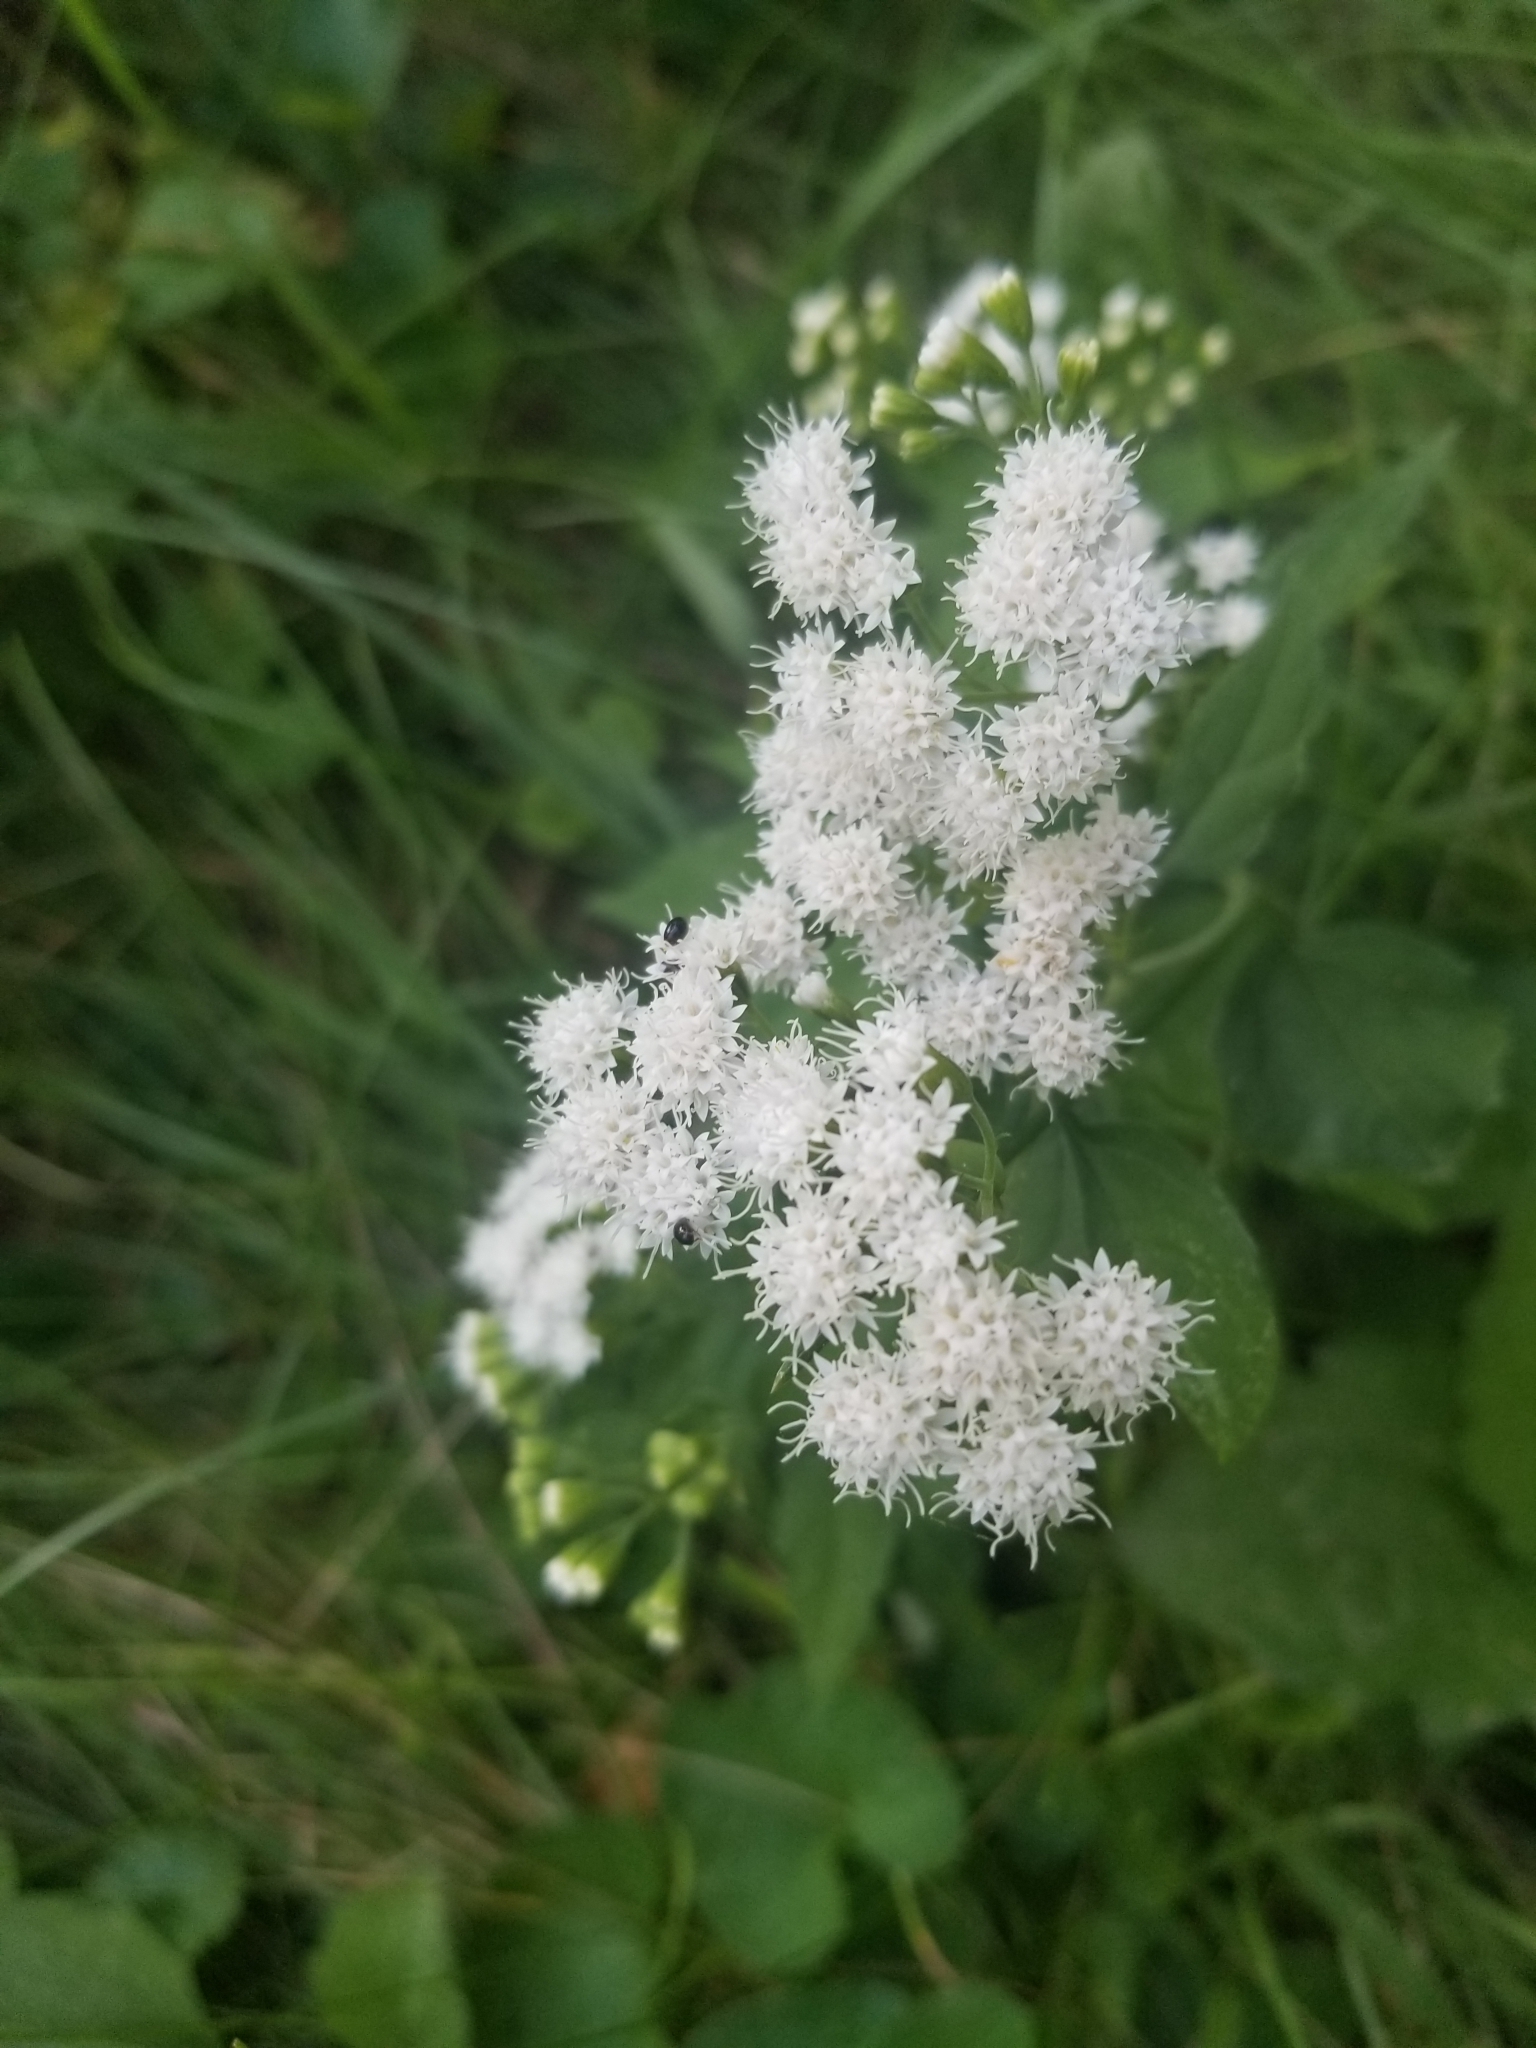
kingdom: Plantae
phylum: Tracheophyta
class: Magnoliopsida
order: Asterales
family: Asteraceae
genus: Ageratina
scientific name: Ageratina altissima
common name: White snakeroot
